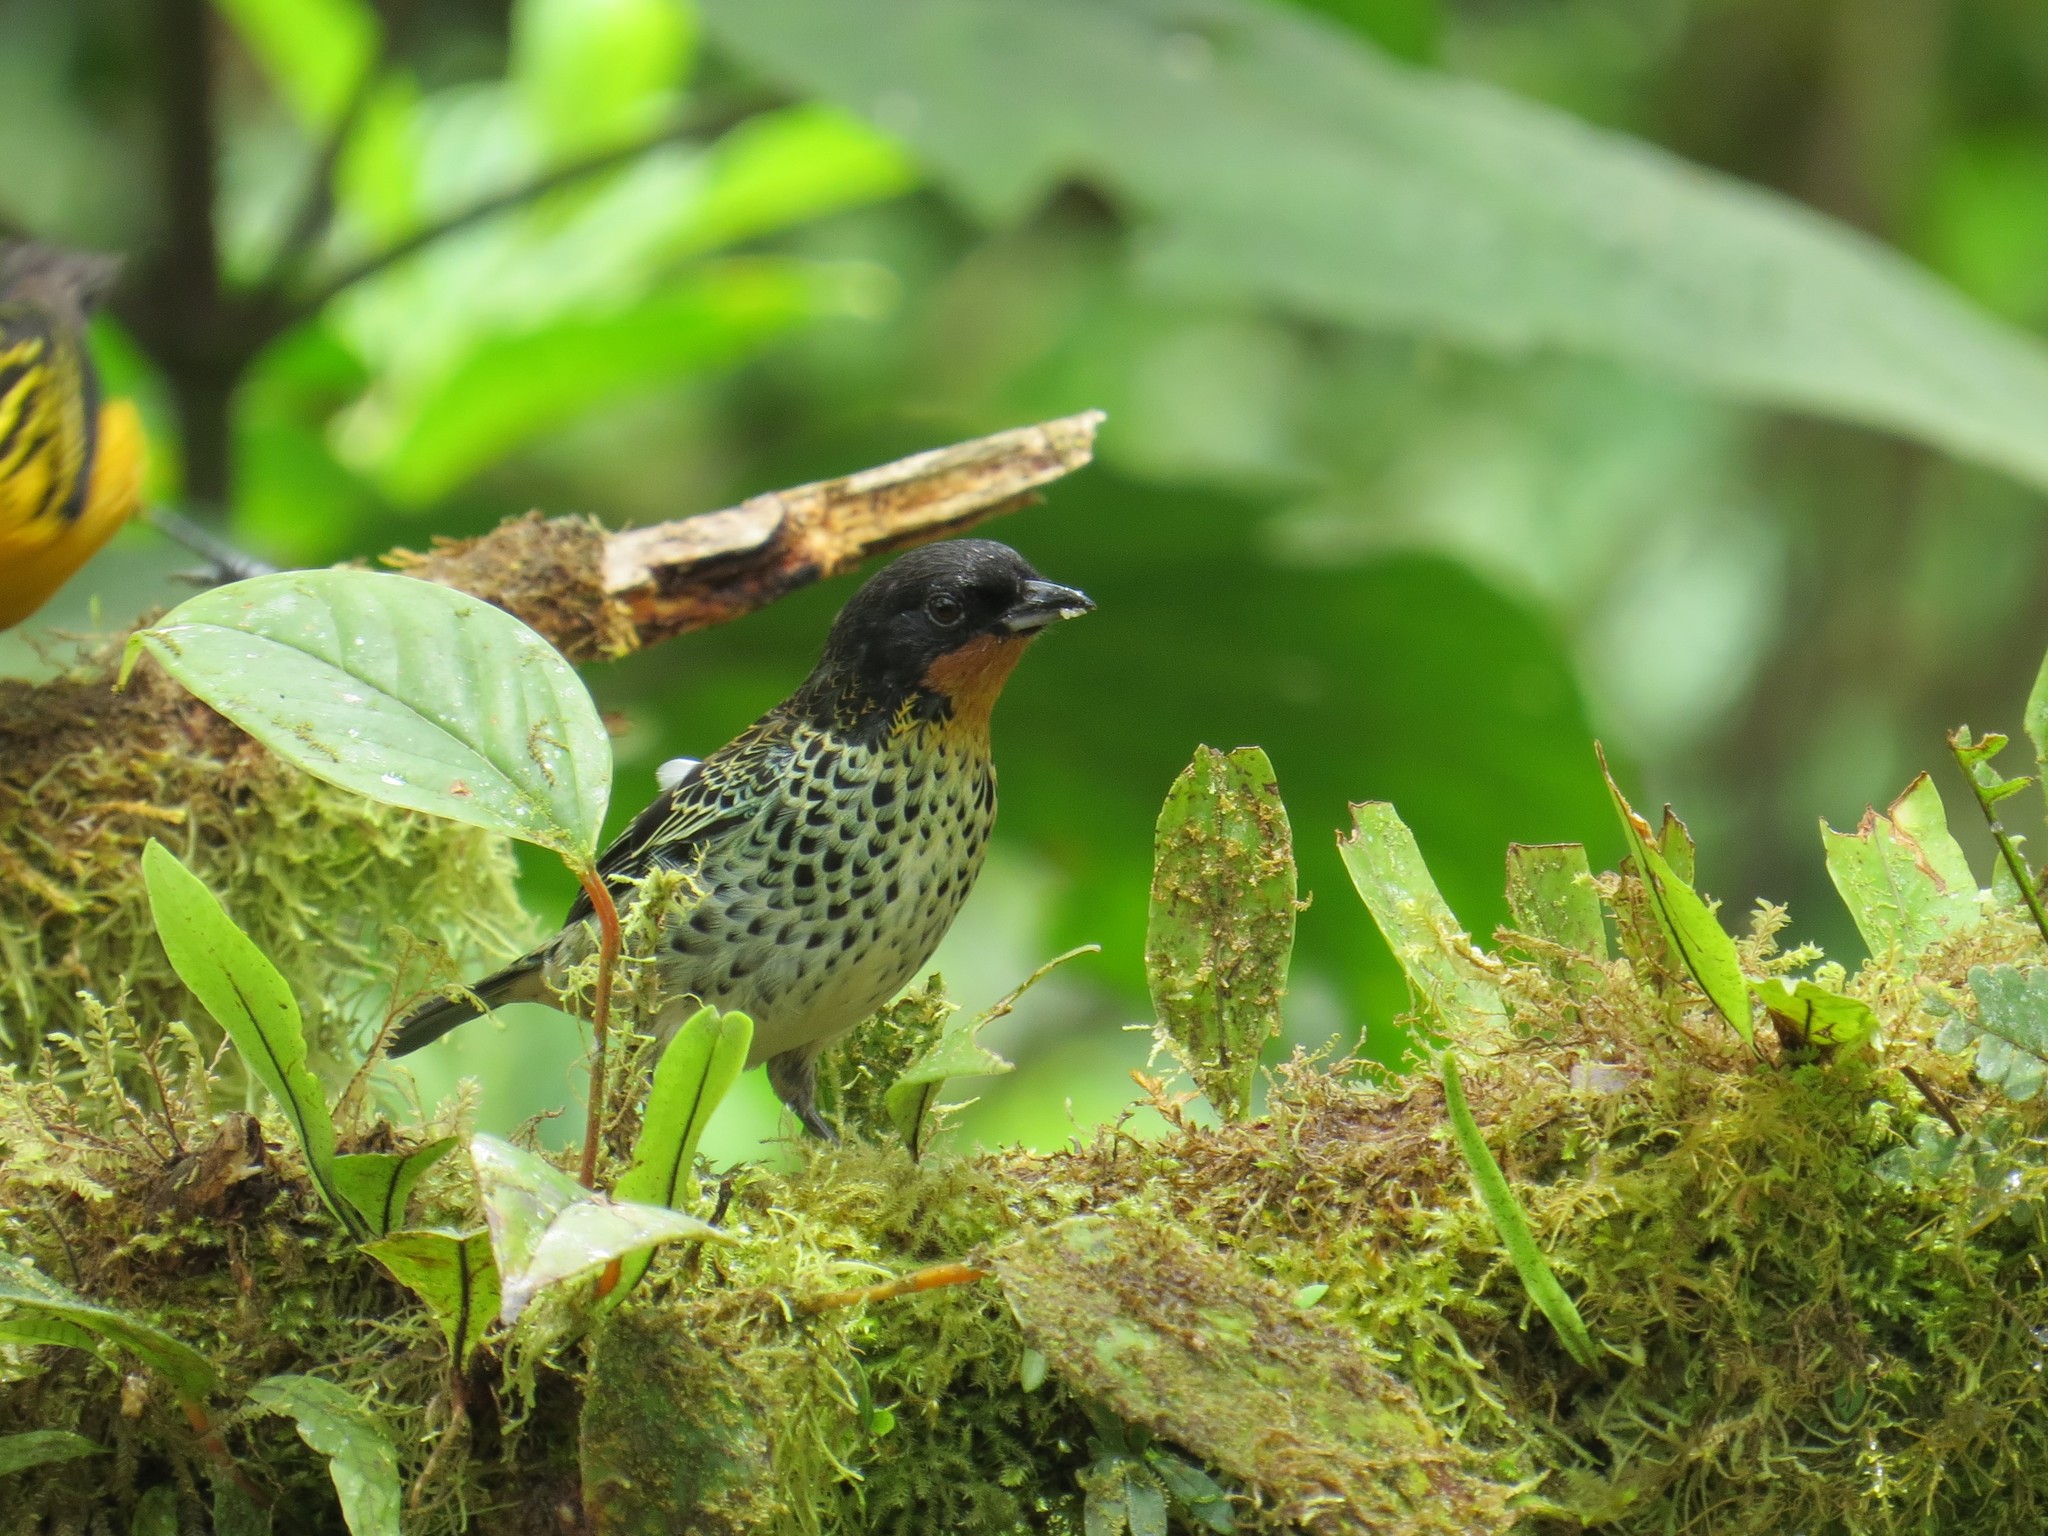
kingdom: Animalia
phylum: Chordata
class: Aves
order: Passeriformes
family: Thraupidae
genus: Ixothraupis
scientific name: Ixothraupis rufigula
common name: Rufous-throated tanager
